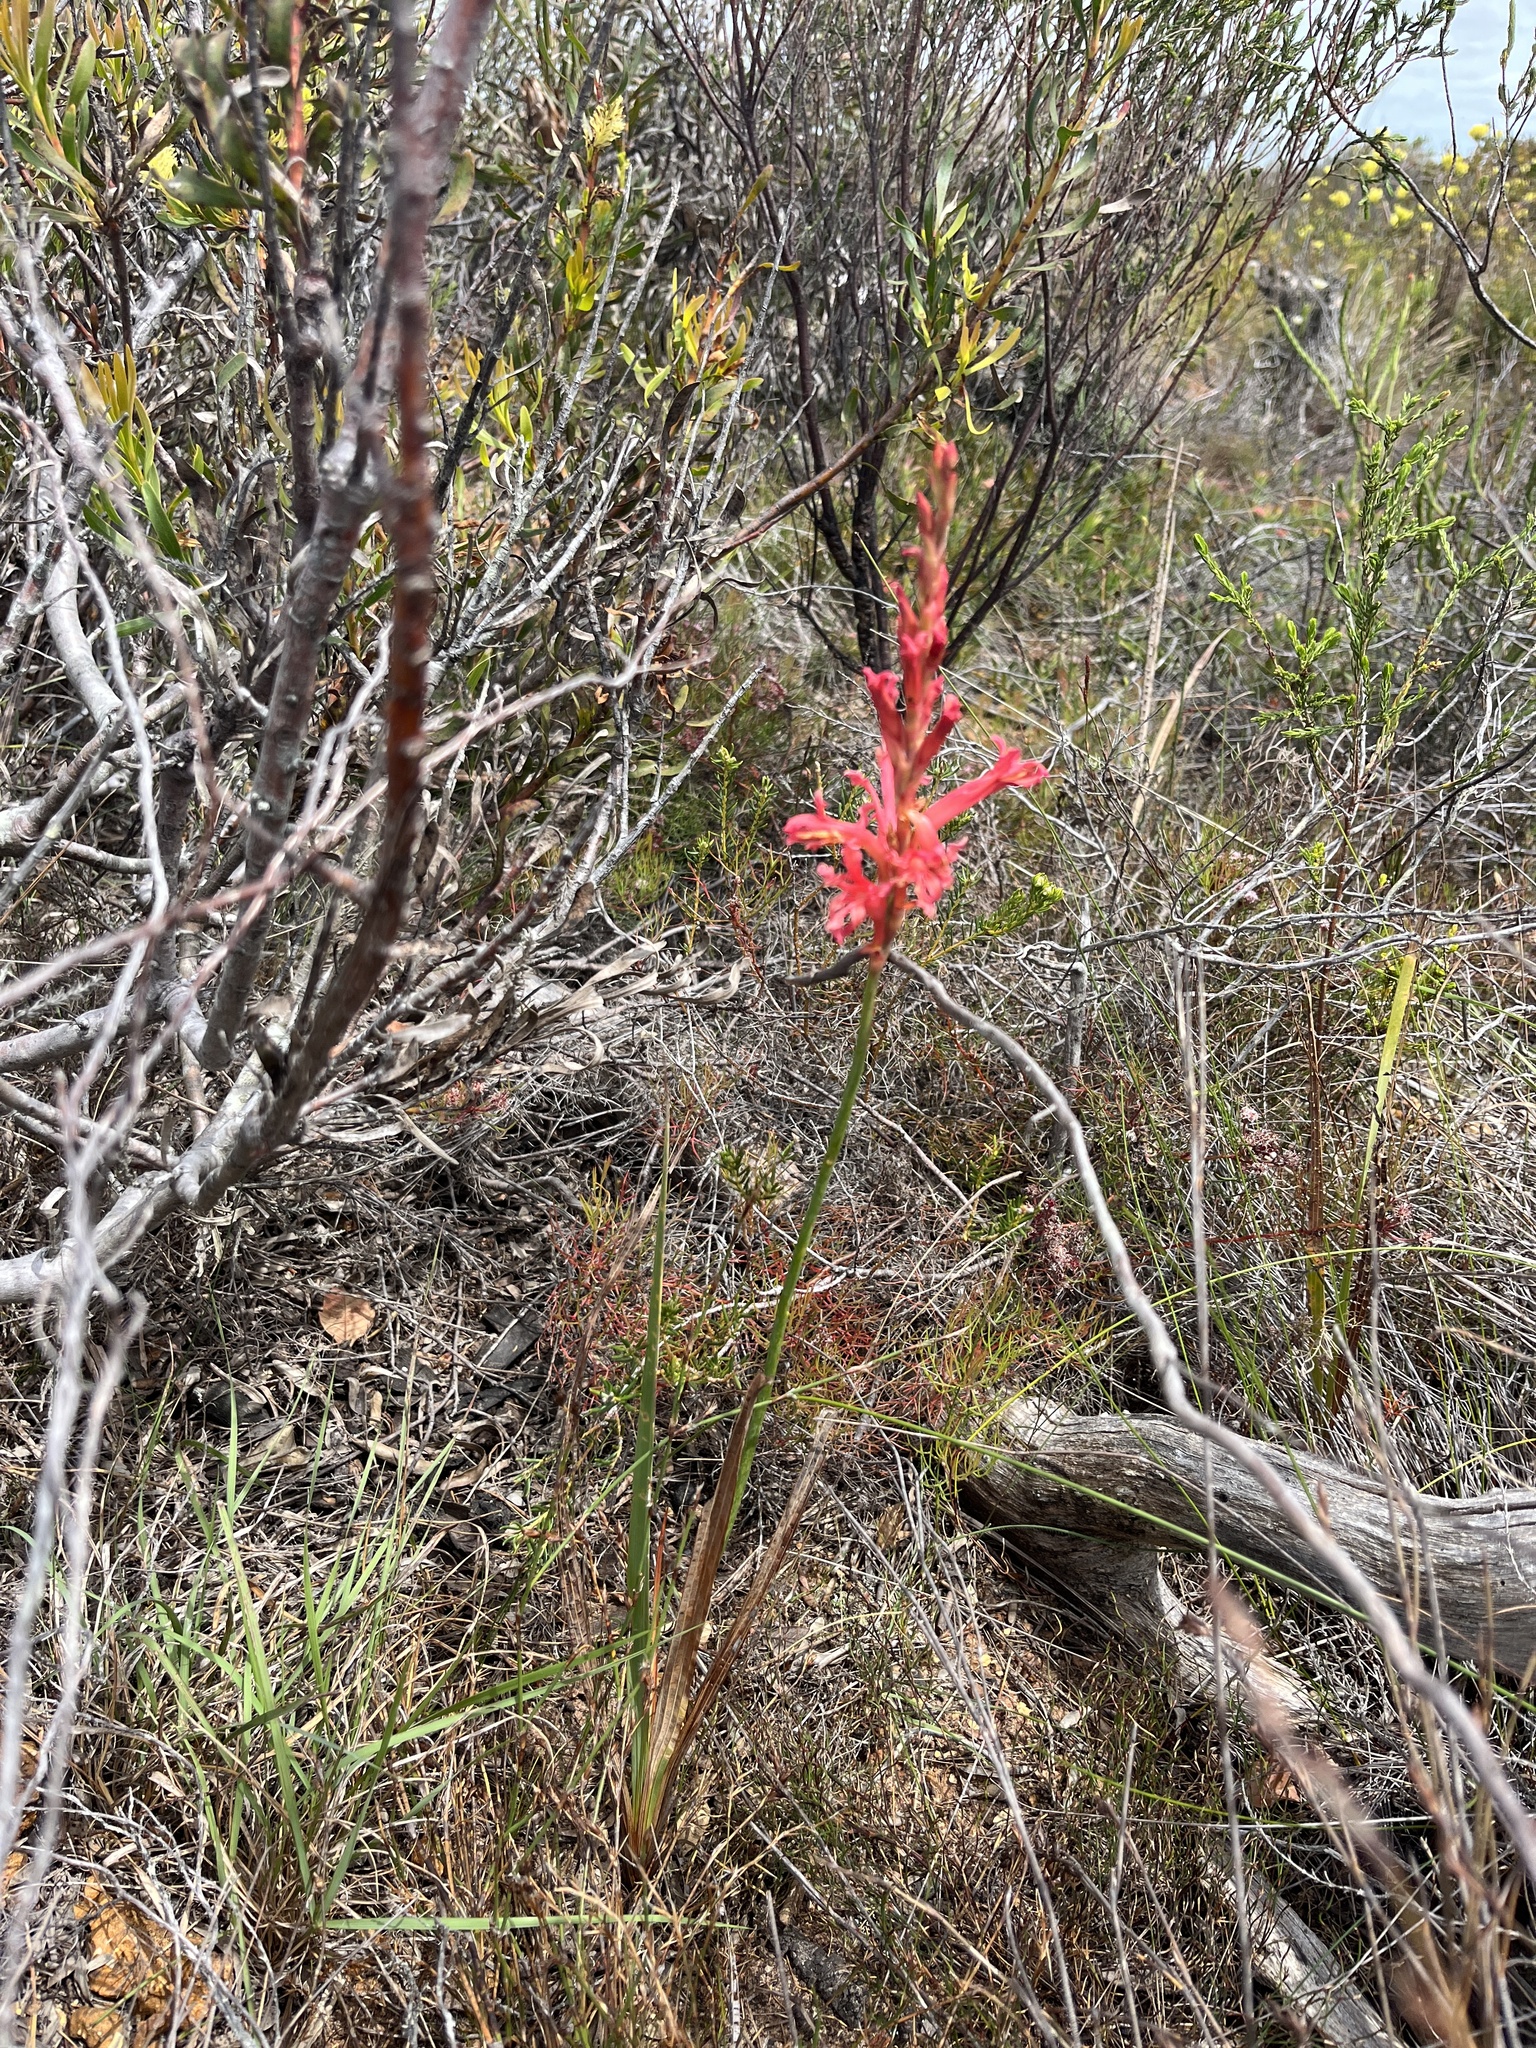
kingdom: Plantae
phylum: Tracheophyta
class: Liliopsida
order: Asparagales
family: Iridaceae
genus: Tritoniopsis
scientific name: Tritoniopsis antholyza
